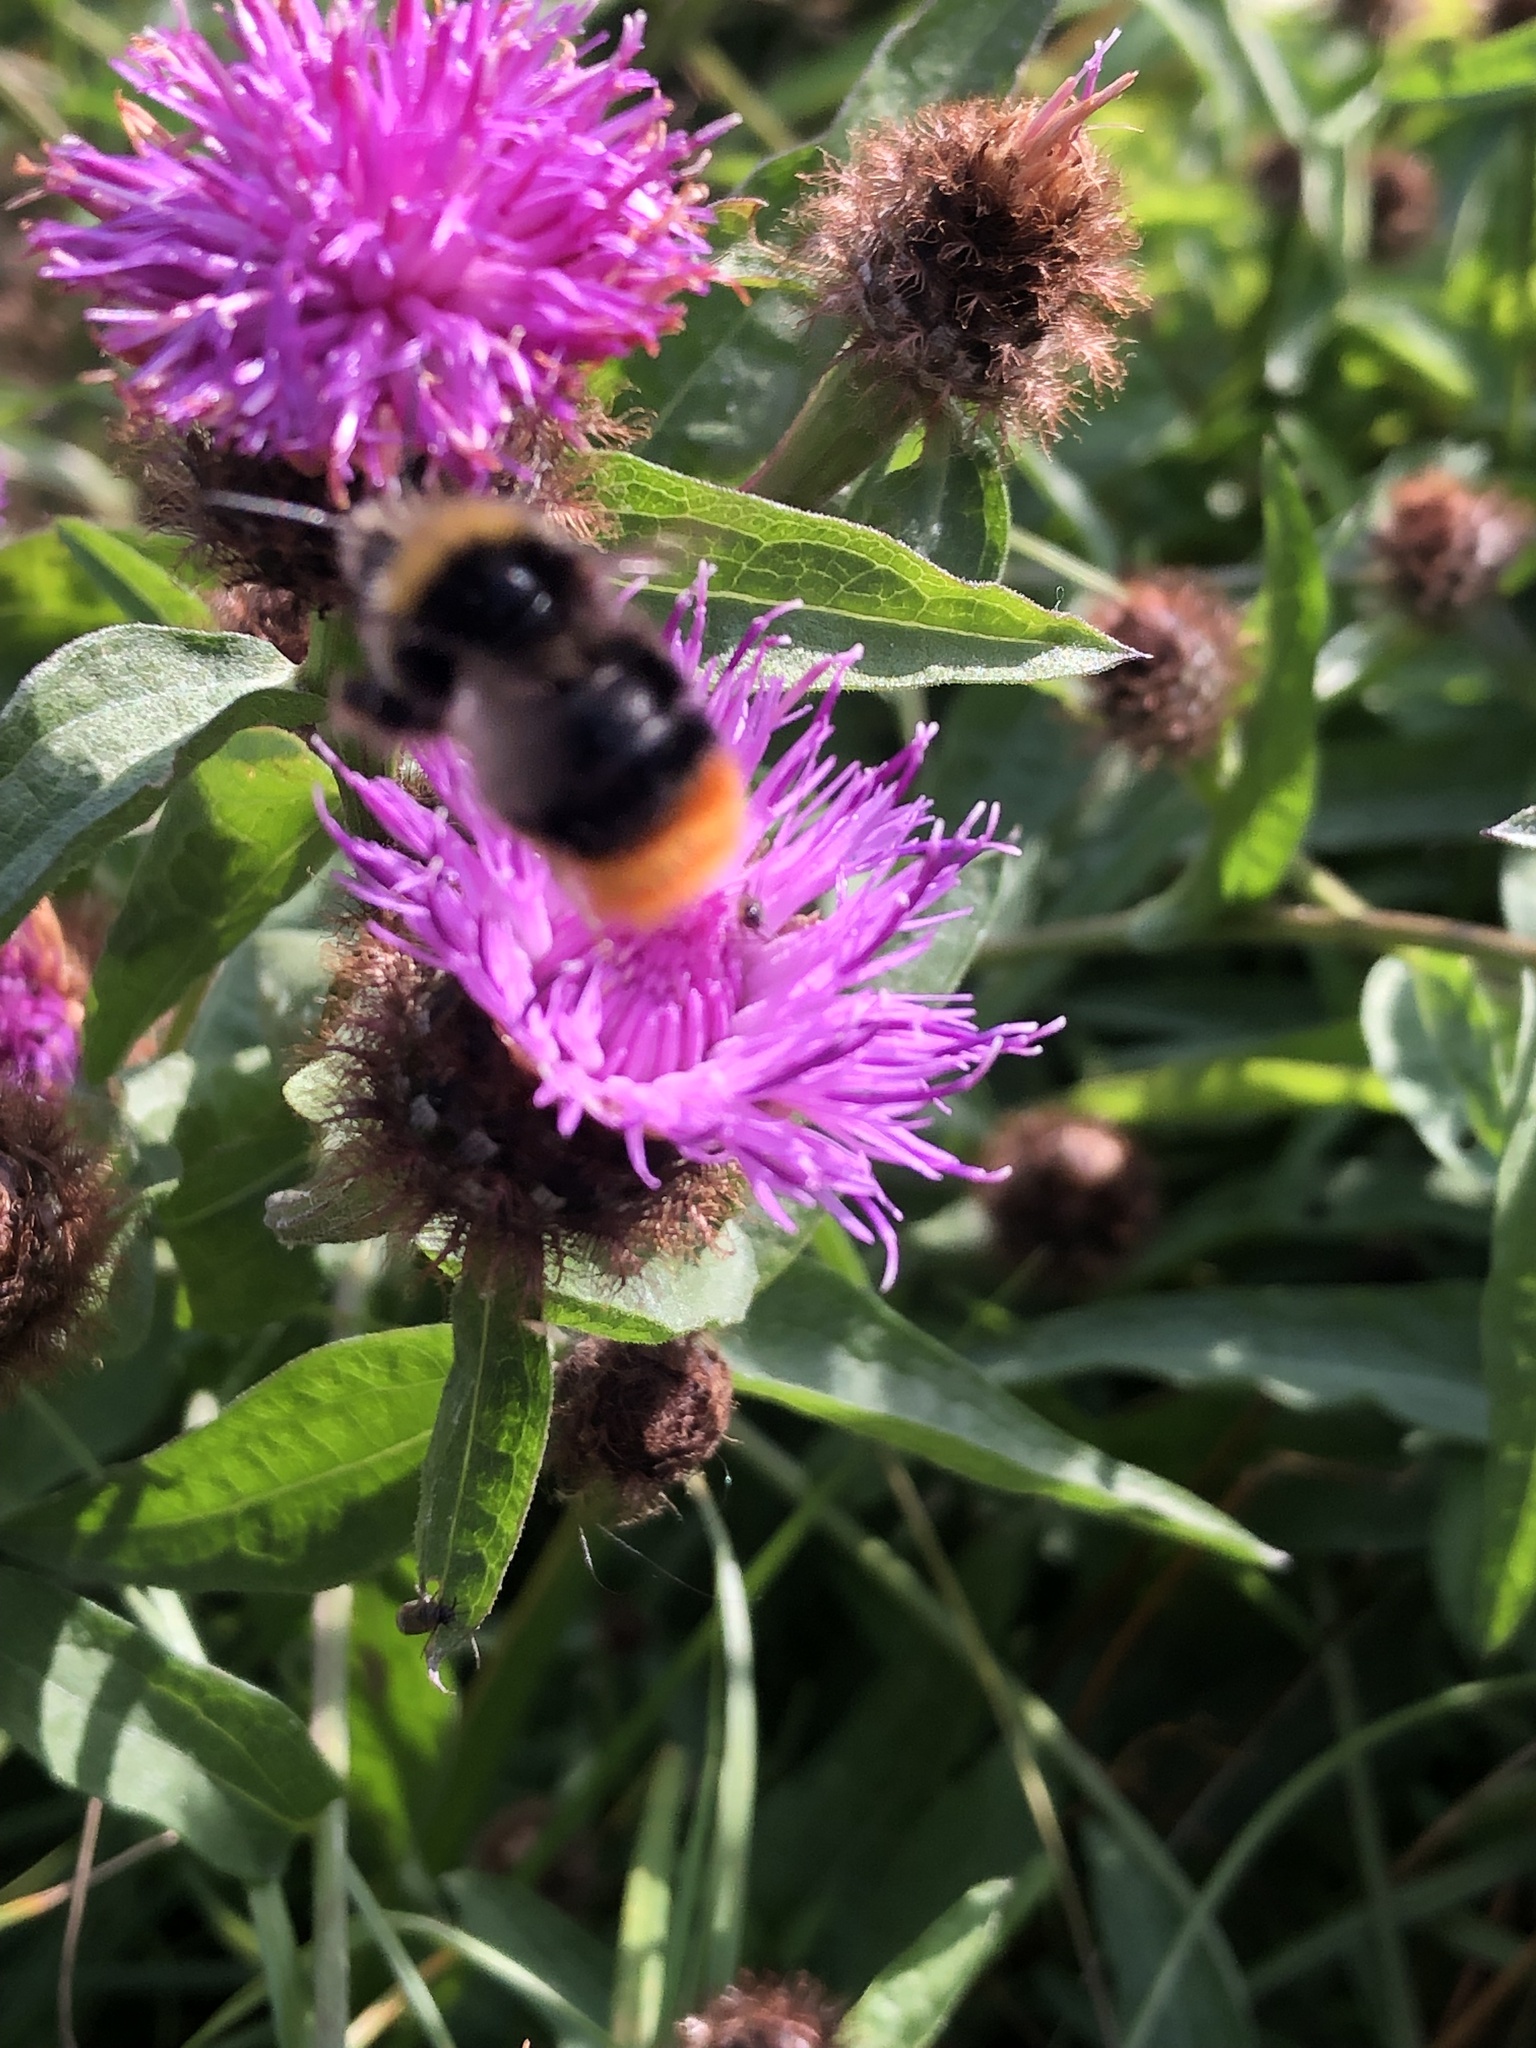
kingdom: Animalia
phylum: Arthropoda
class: Insecta
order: Hymenoptera
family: Apidae
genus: Bombus
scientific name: Bombus lapidarius
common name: Large red-tailed humble-bee
